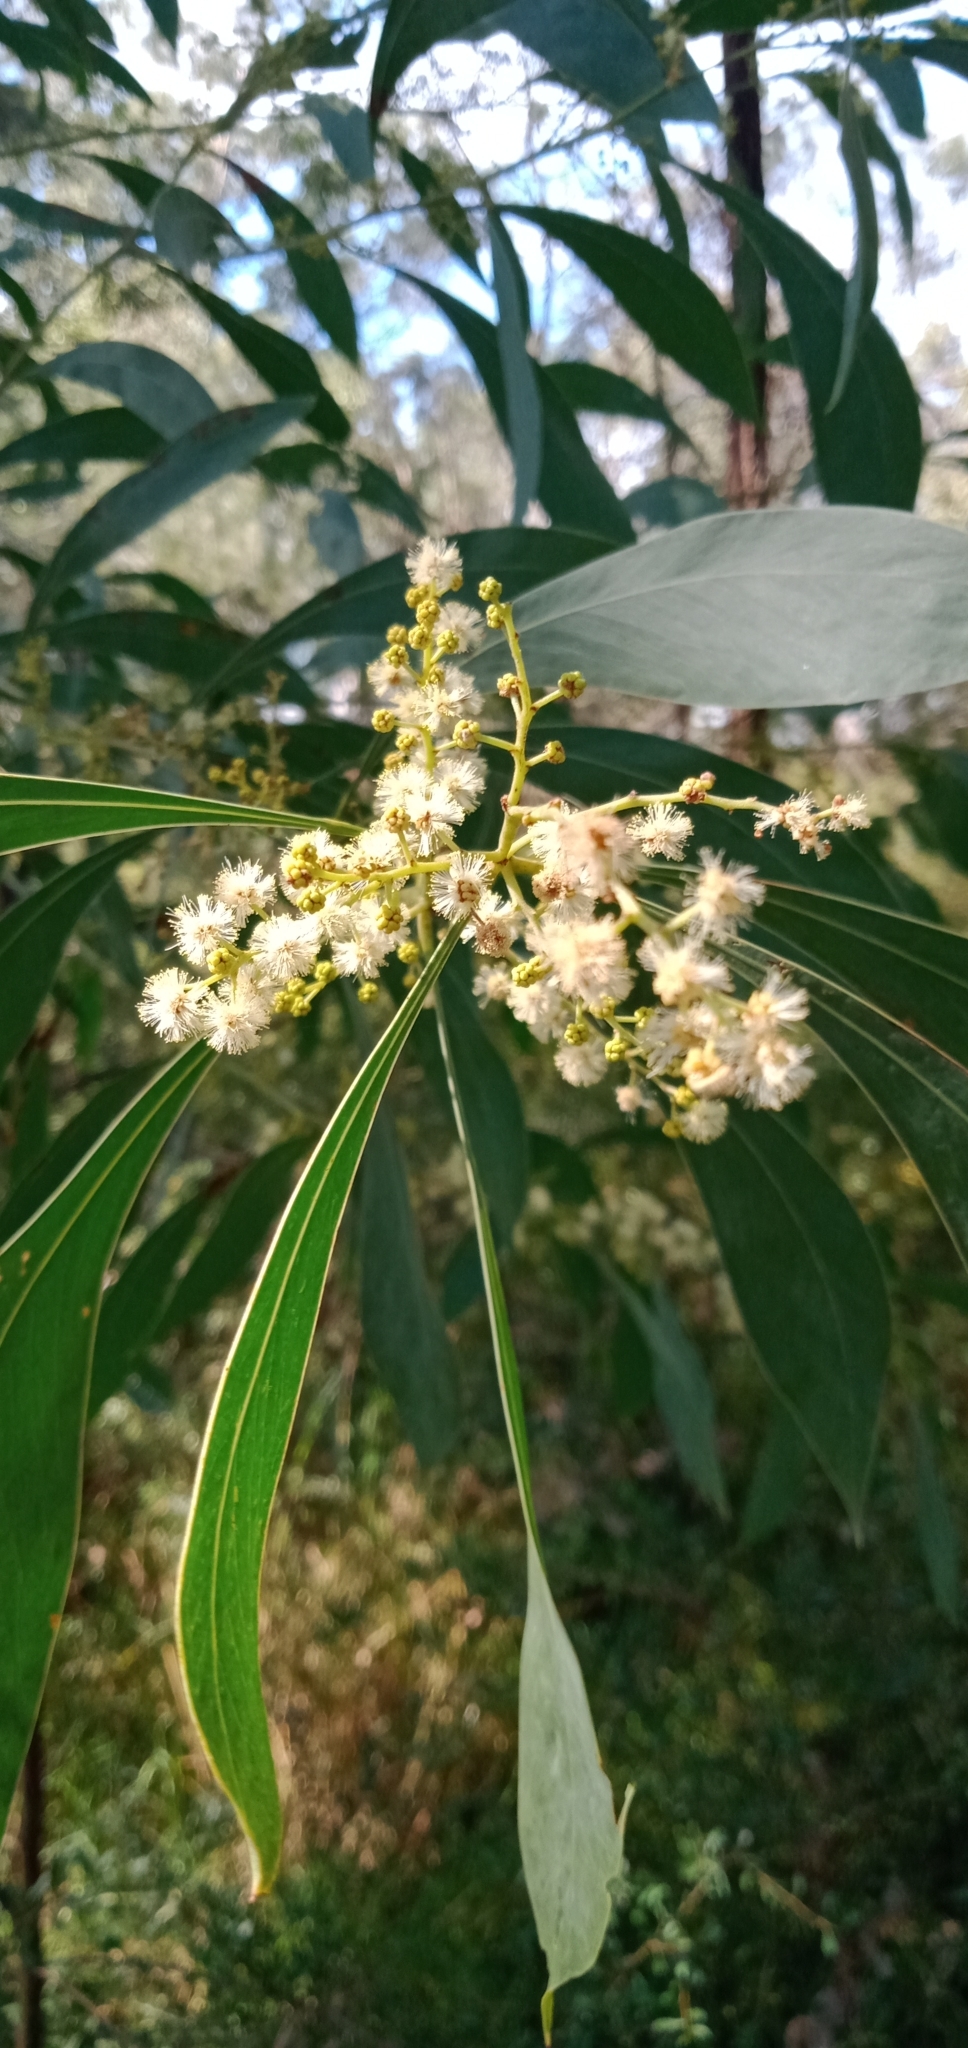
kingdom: Plantae
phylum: Tracheophyta
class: Magnoliopsida
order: Fabales
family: Fabaceae
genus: Acacia
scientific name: Acacia falcata
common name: Burra acacia
